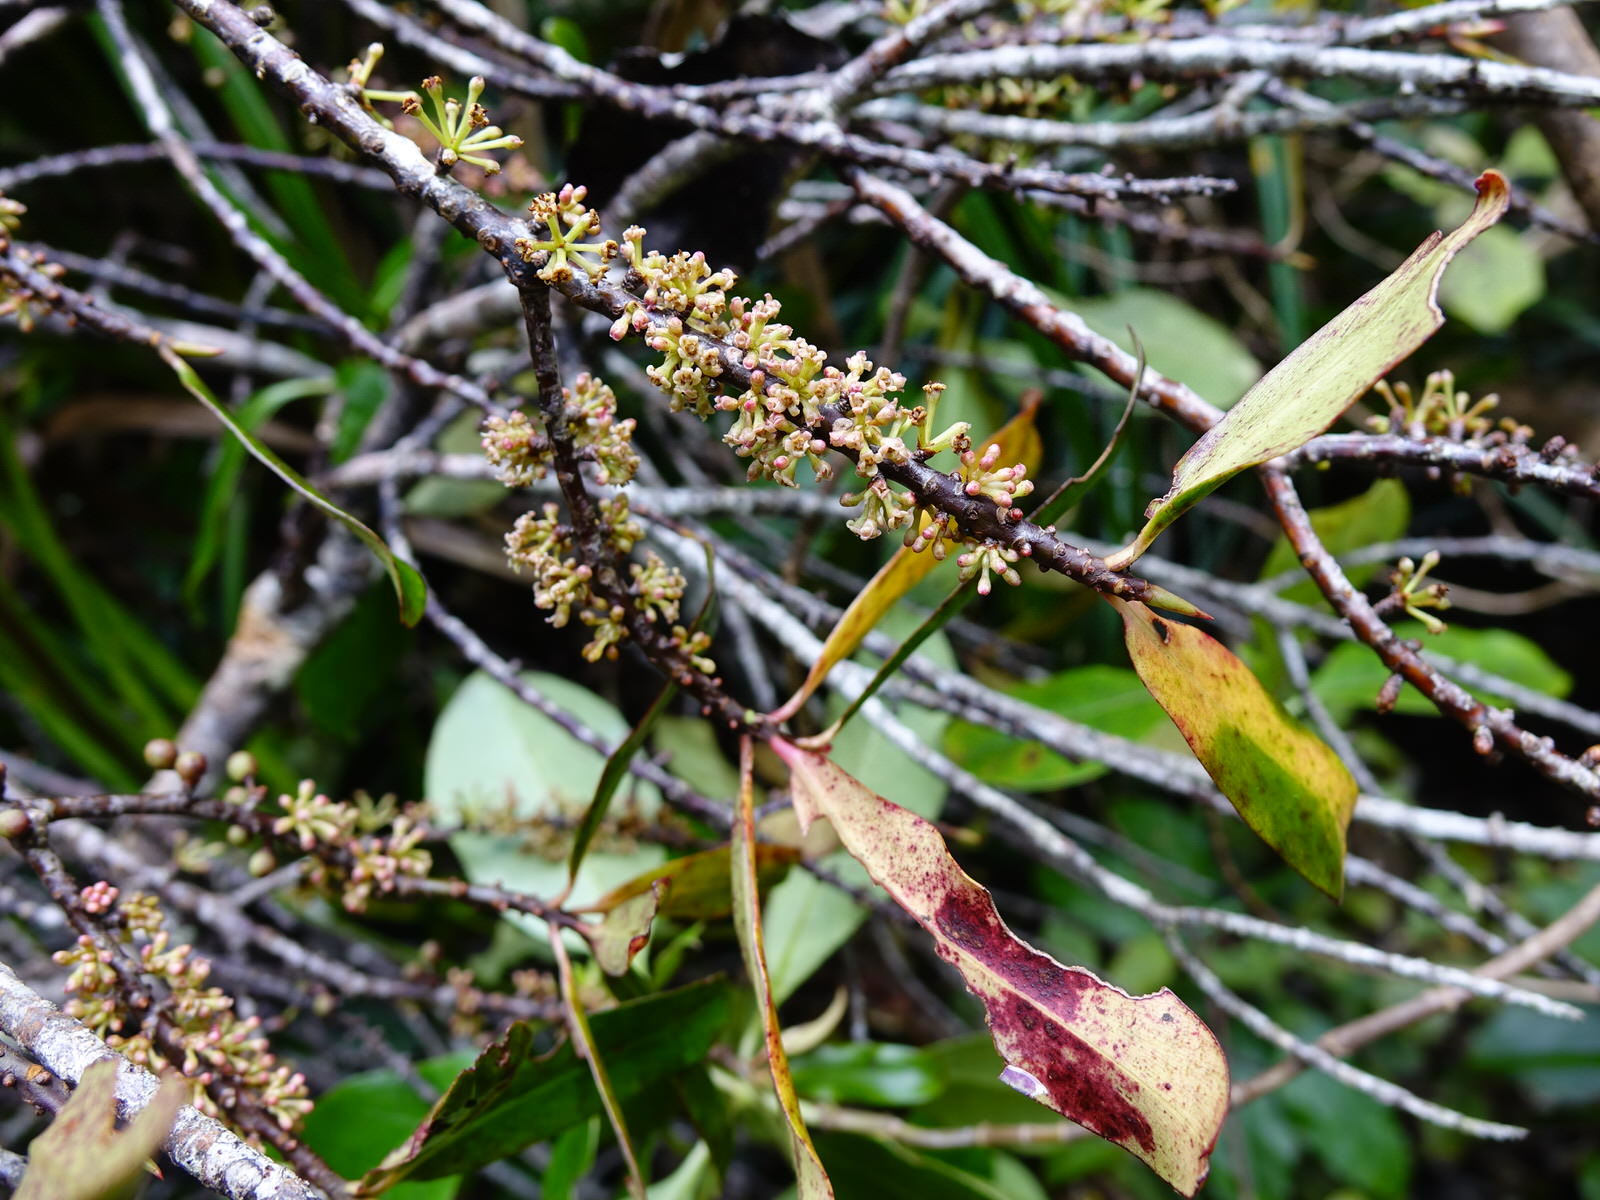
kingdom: Plantae
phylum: Tracheophyta
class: Magnoliopsida
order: Ericales
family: Primulaceae
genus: Myrsine
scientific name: Myrsine salicina
